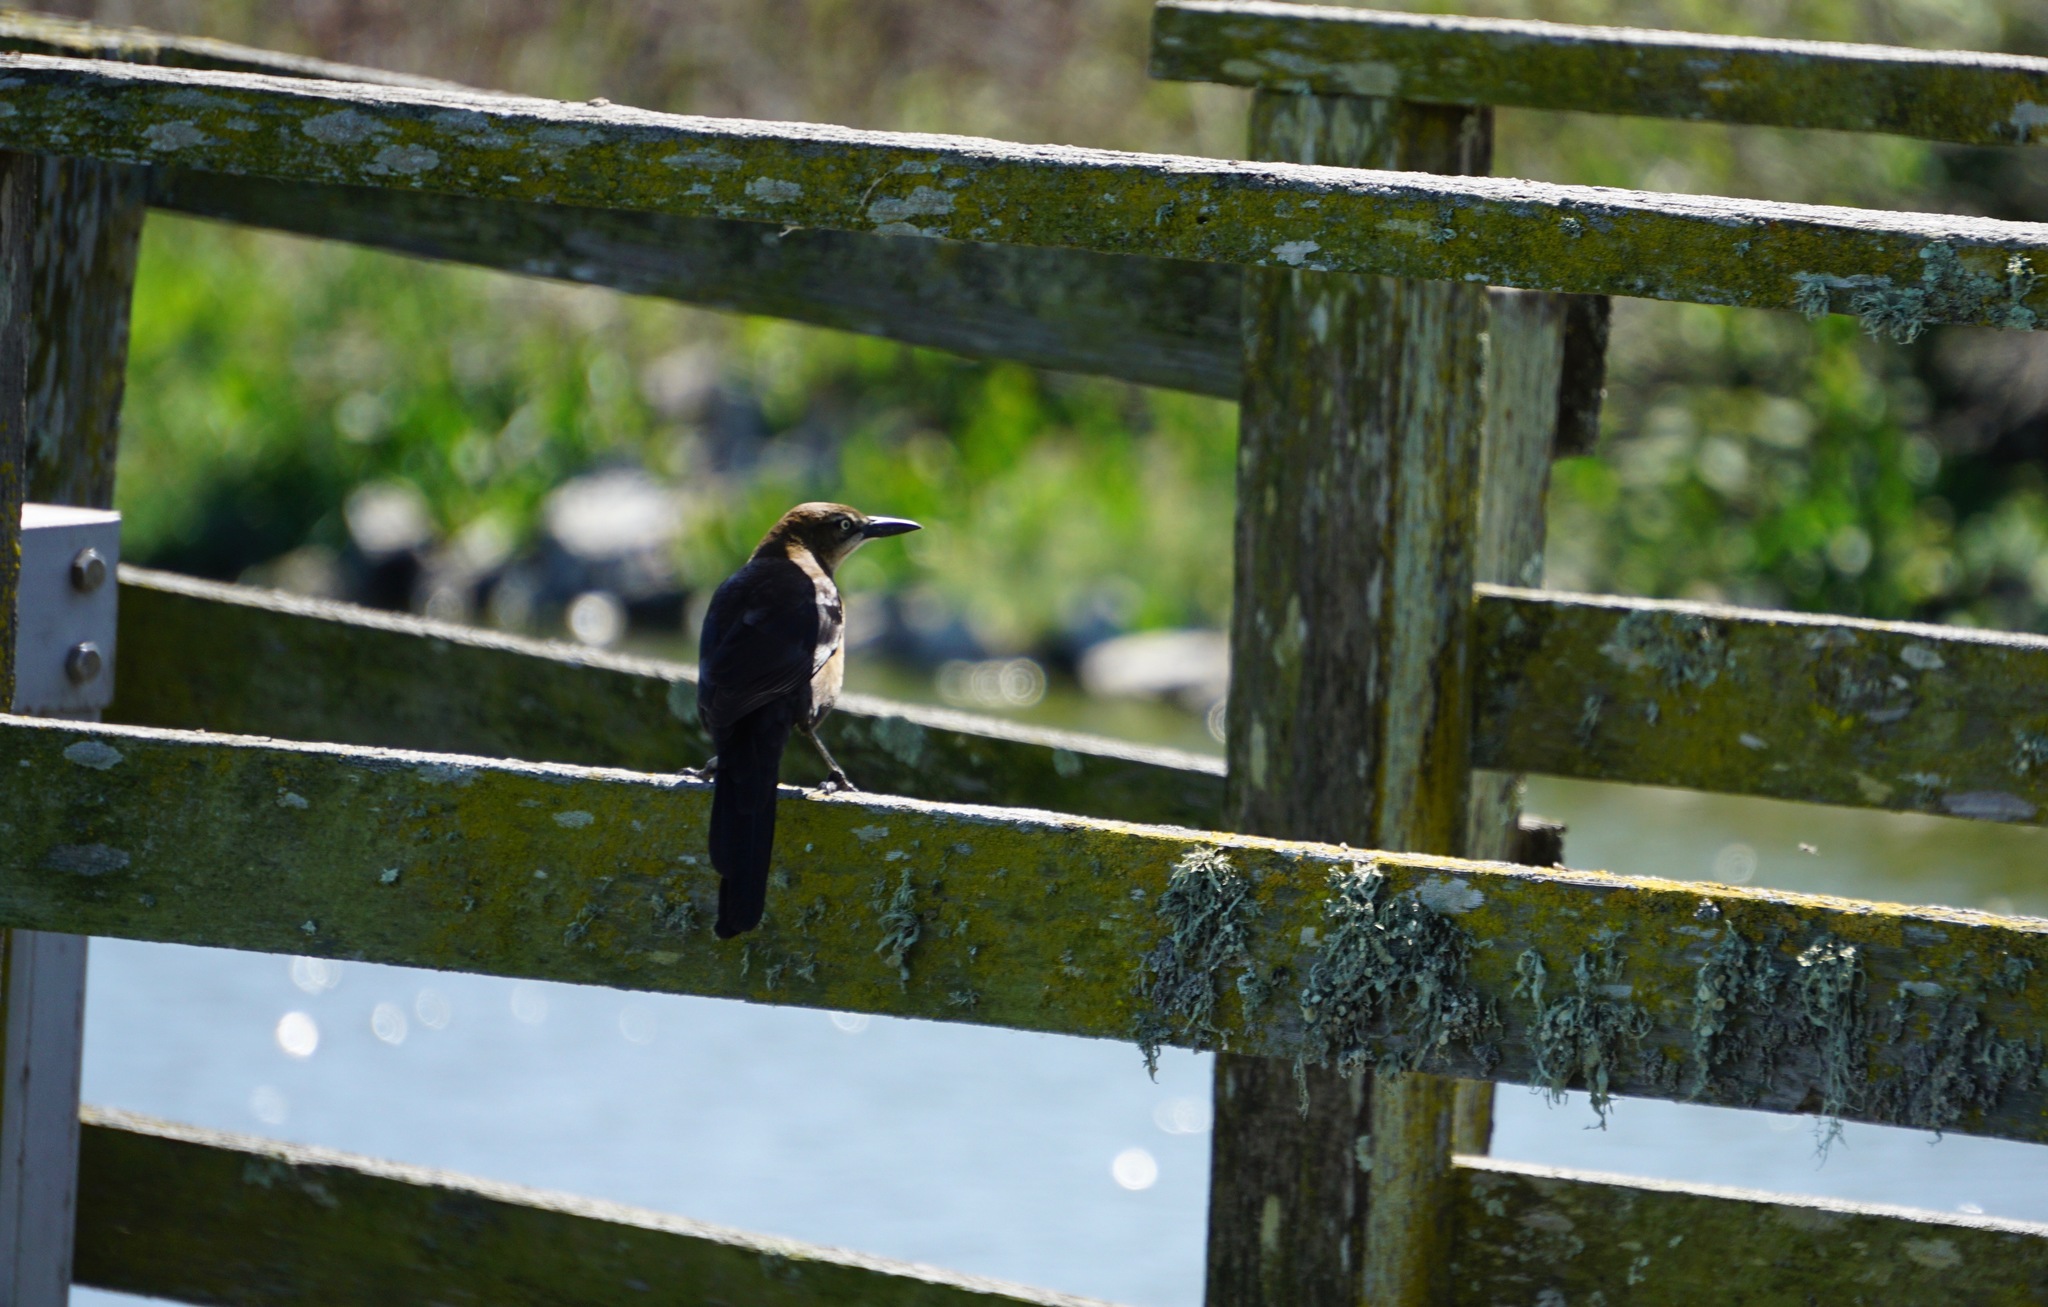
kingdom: Animalia
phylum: Chordata
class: Aves
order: Passeriformes
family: Icteridae
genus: Quiscalus
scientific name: Quiscalus mexicanus
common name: Great-tailed grackle
